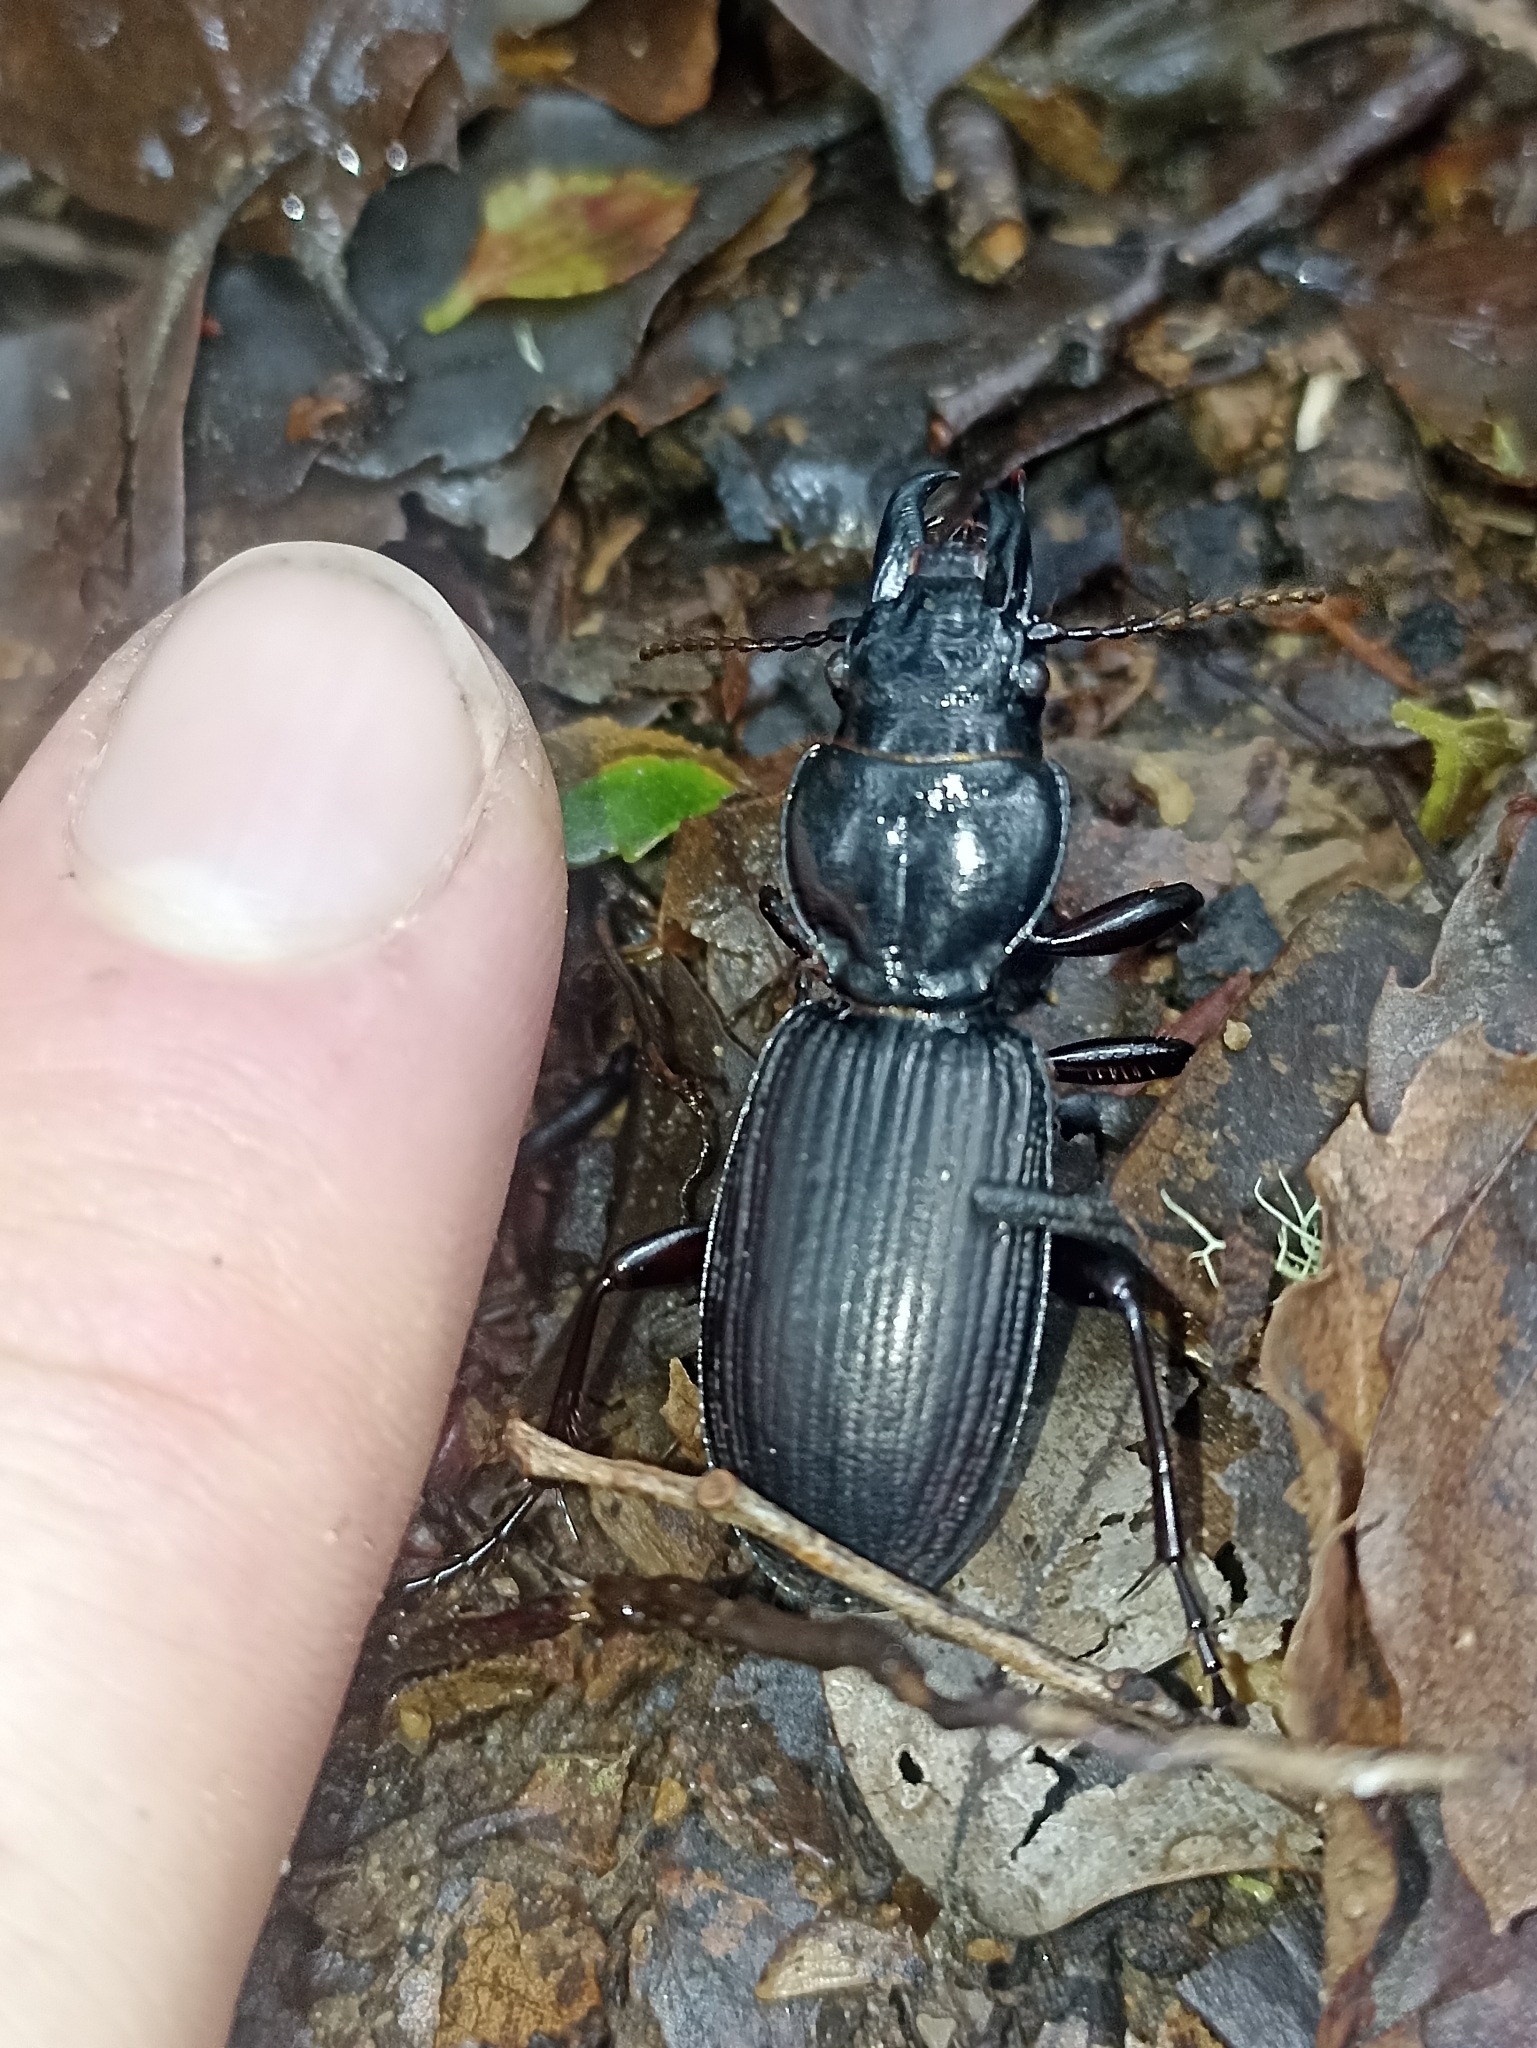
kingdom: Animalia
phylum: Arthropoda
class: Insecta
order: Coleoptera
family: Carabidae
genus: Mecodema
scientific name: Mecodema validum
